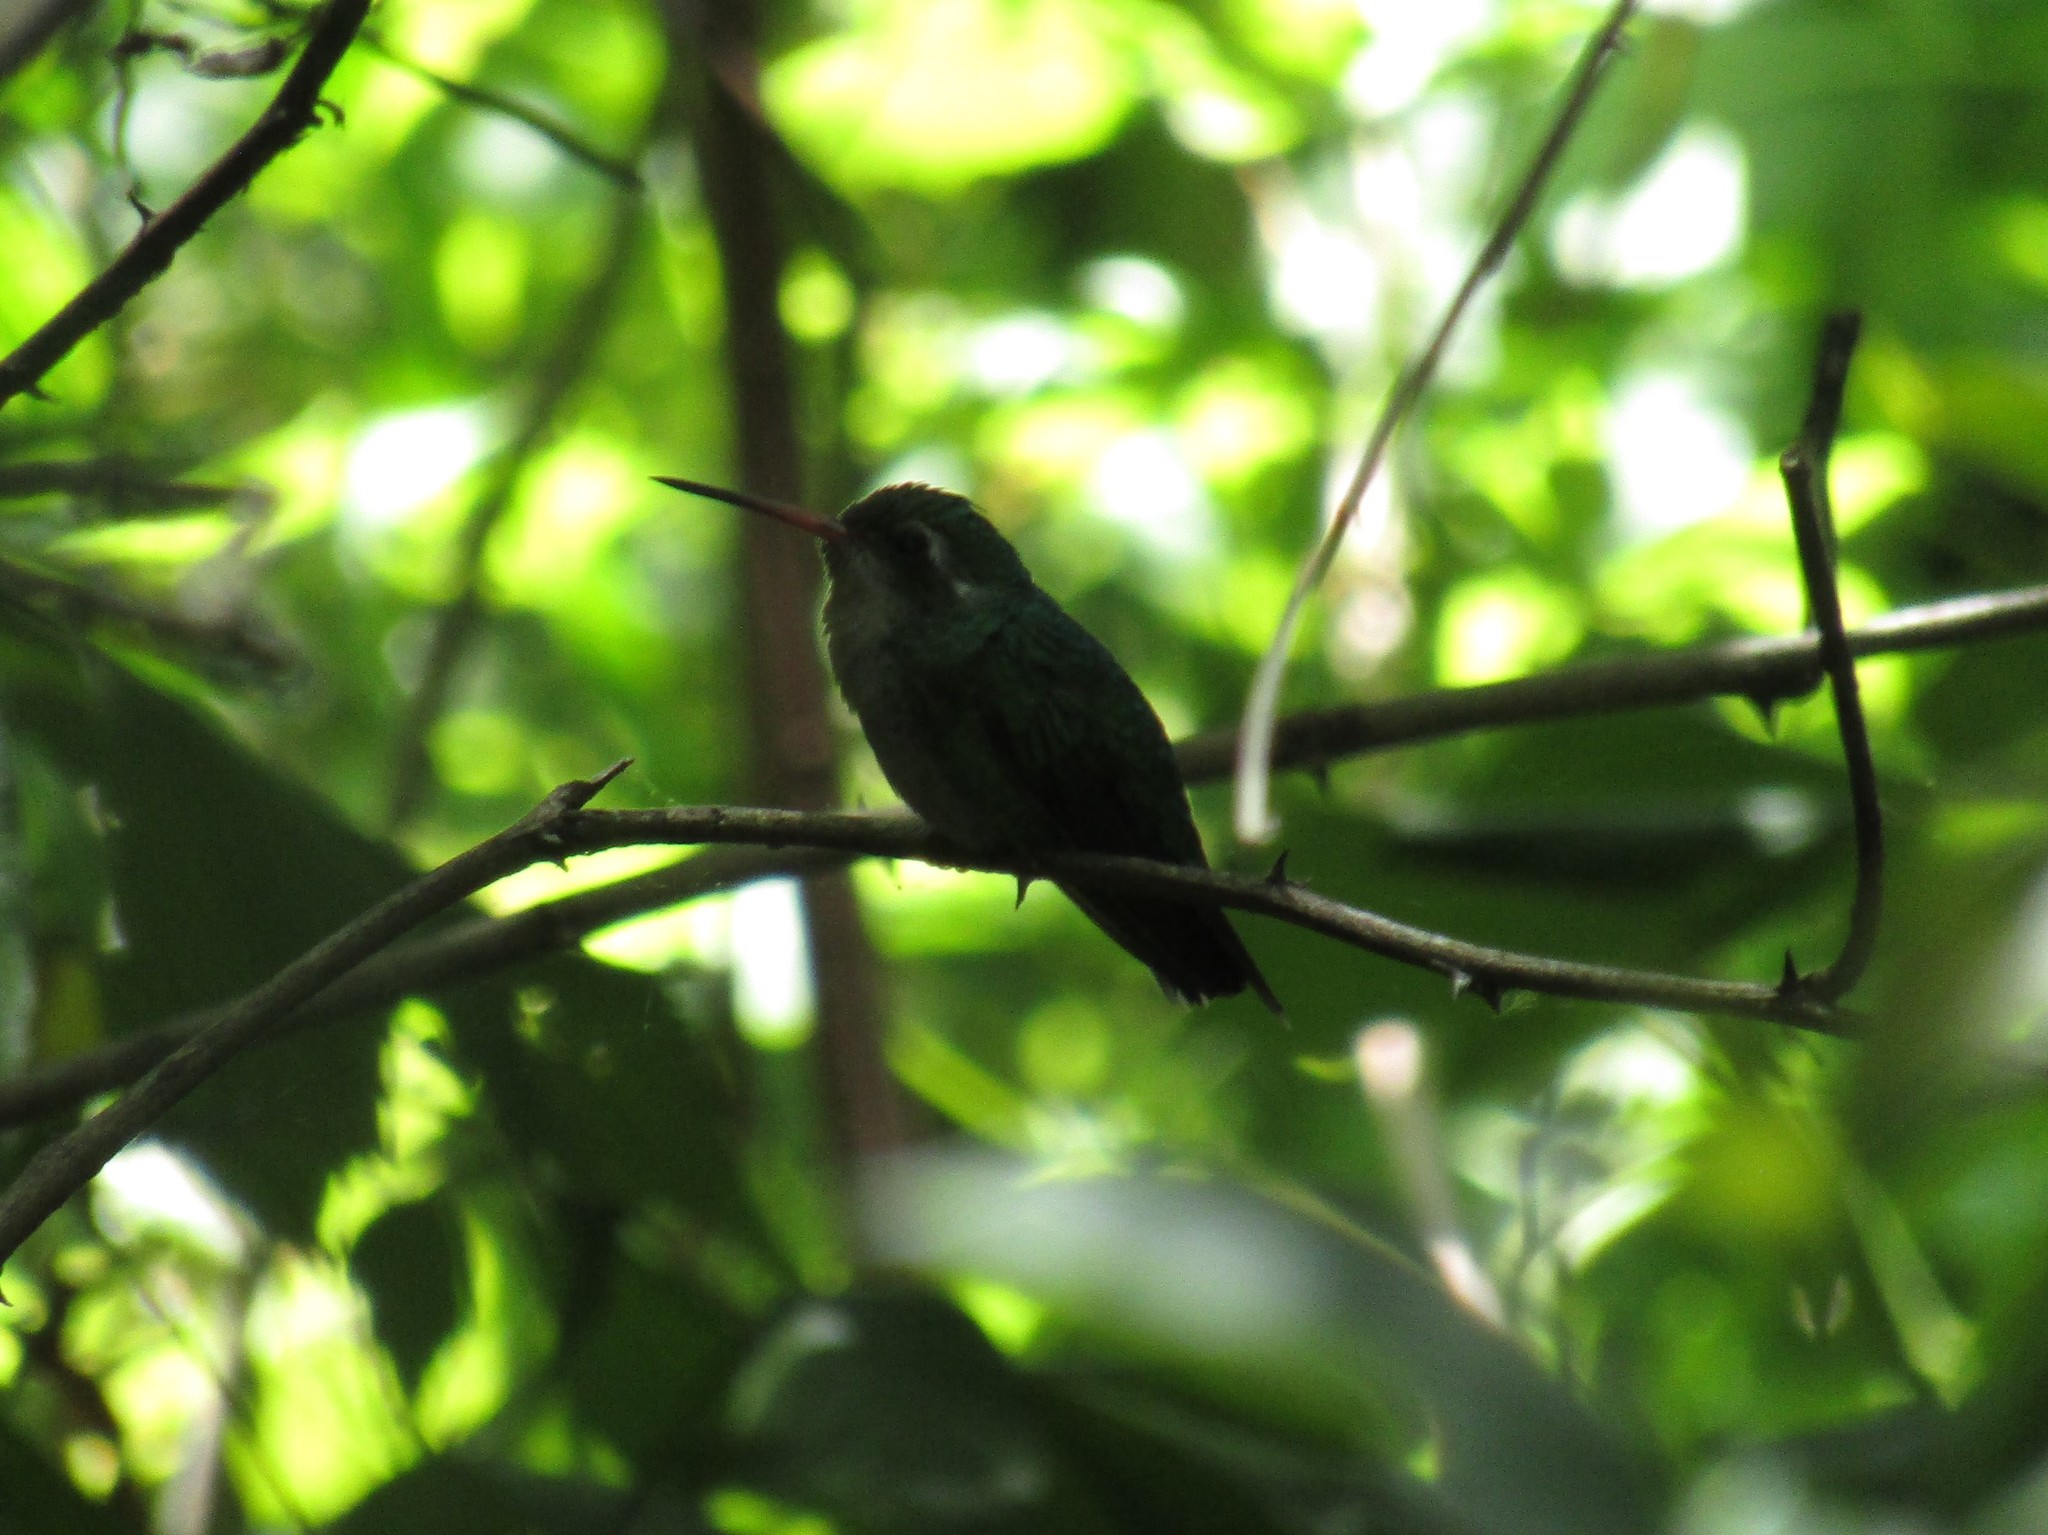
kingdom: Animalia
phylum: Chordata
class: Aves
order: Apodiformes
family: Trochilidae
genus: Chlorostilbon
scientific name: Chlorostilbon lucidus
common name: Glittering-bellied emerald
